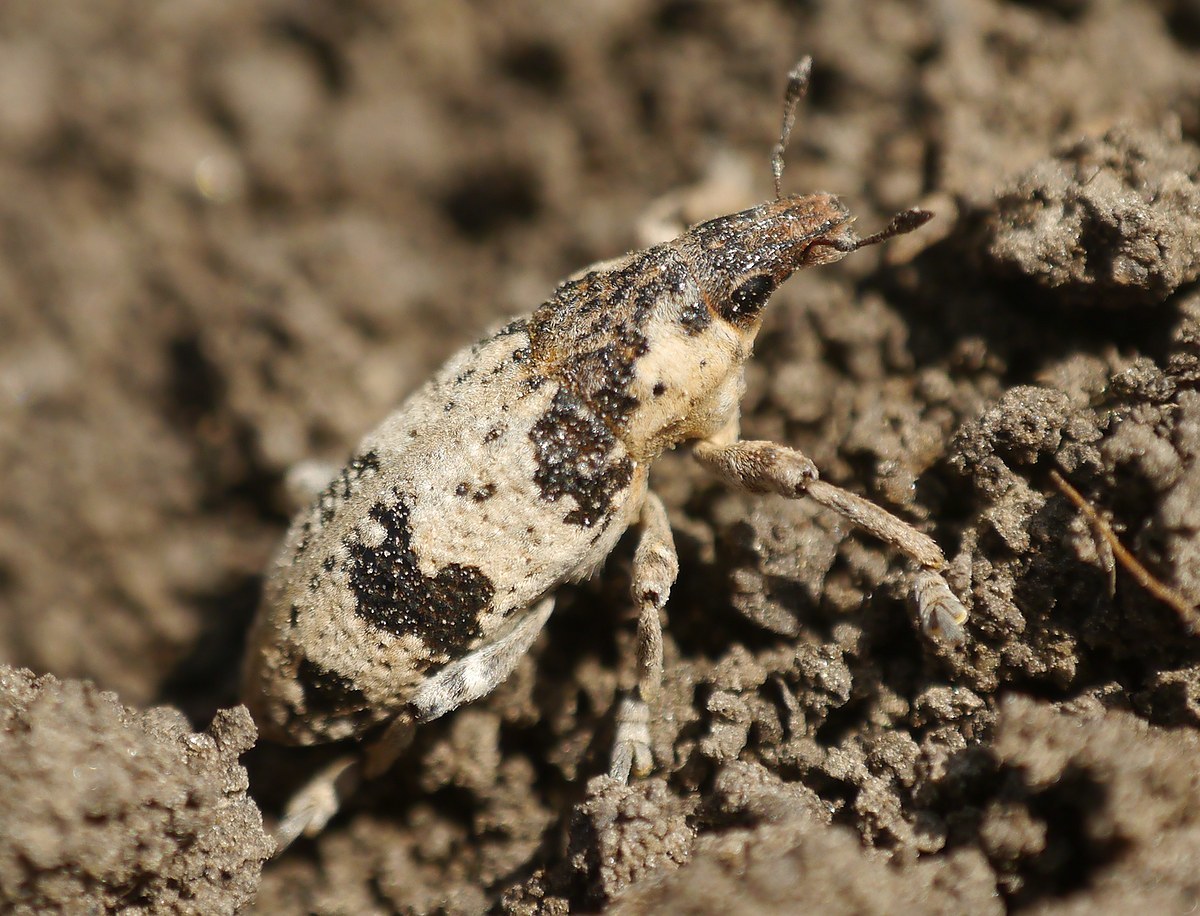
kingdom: Animalia
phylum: Arthropoda
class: Insecta
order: Coleoptera
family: Curculionidae
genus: Bothynoderes
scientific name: Bothynoderes affinis
